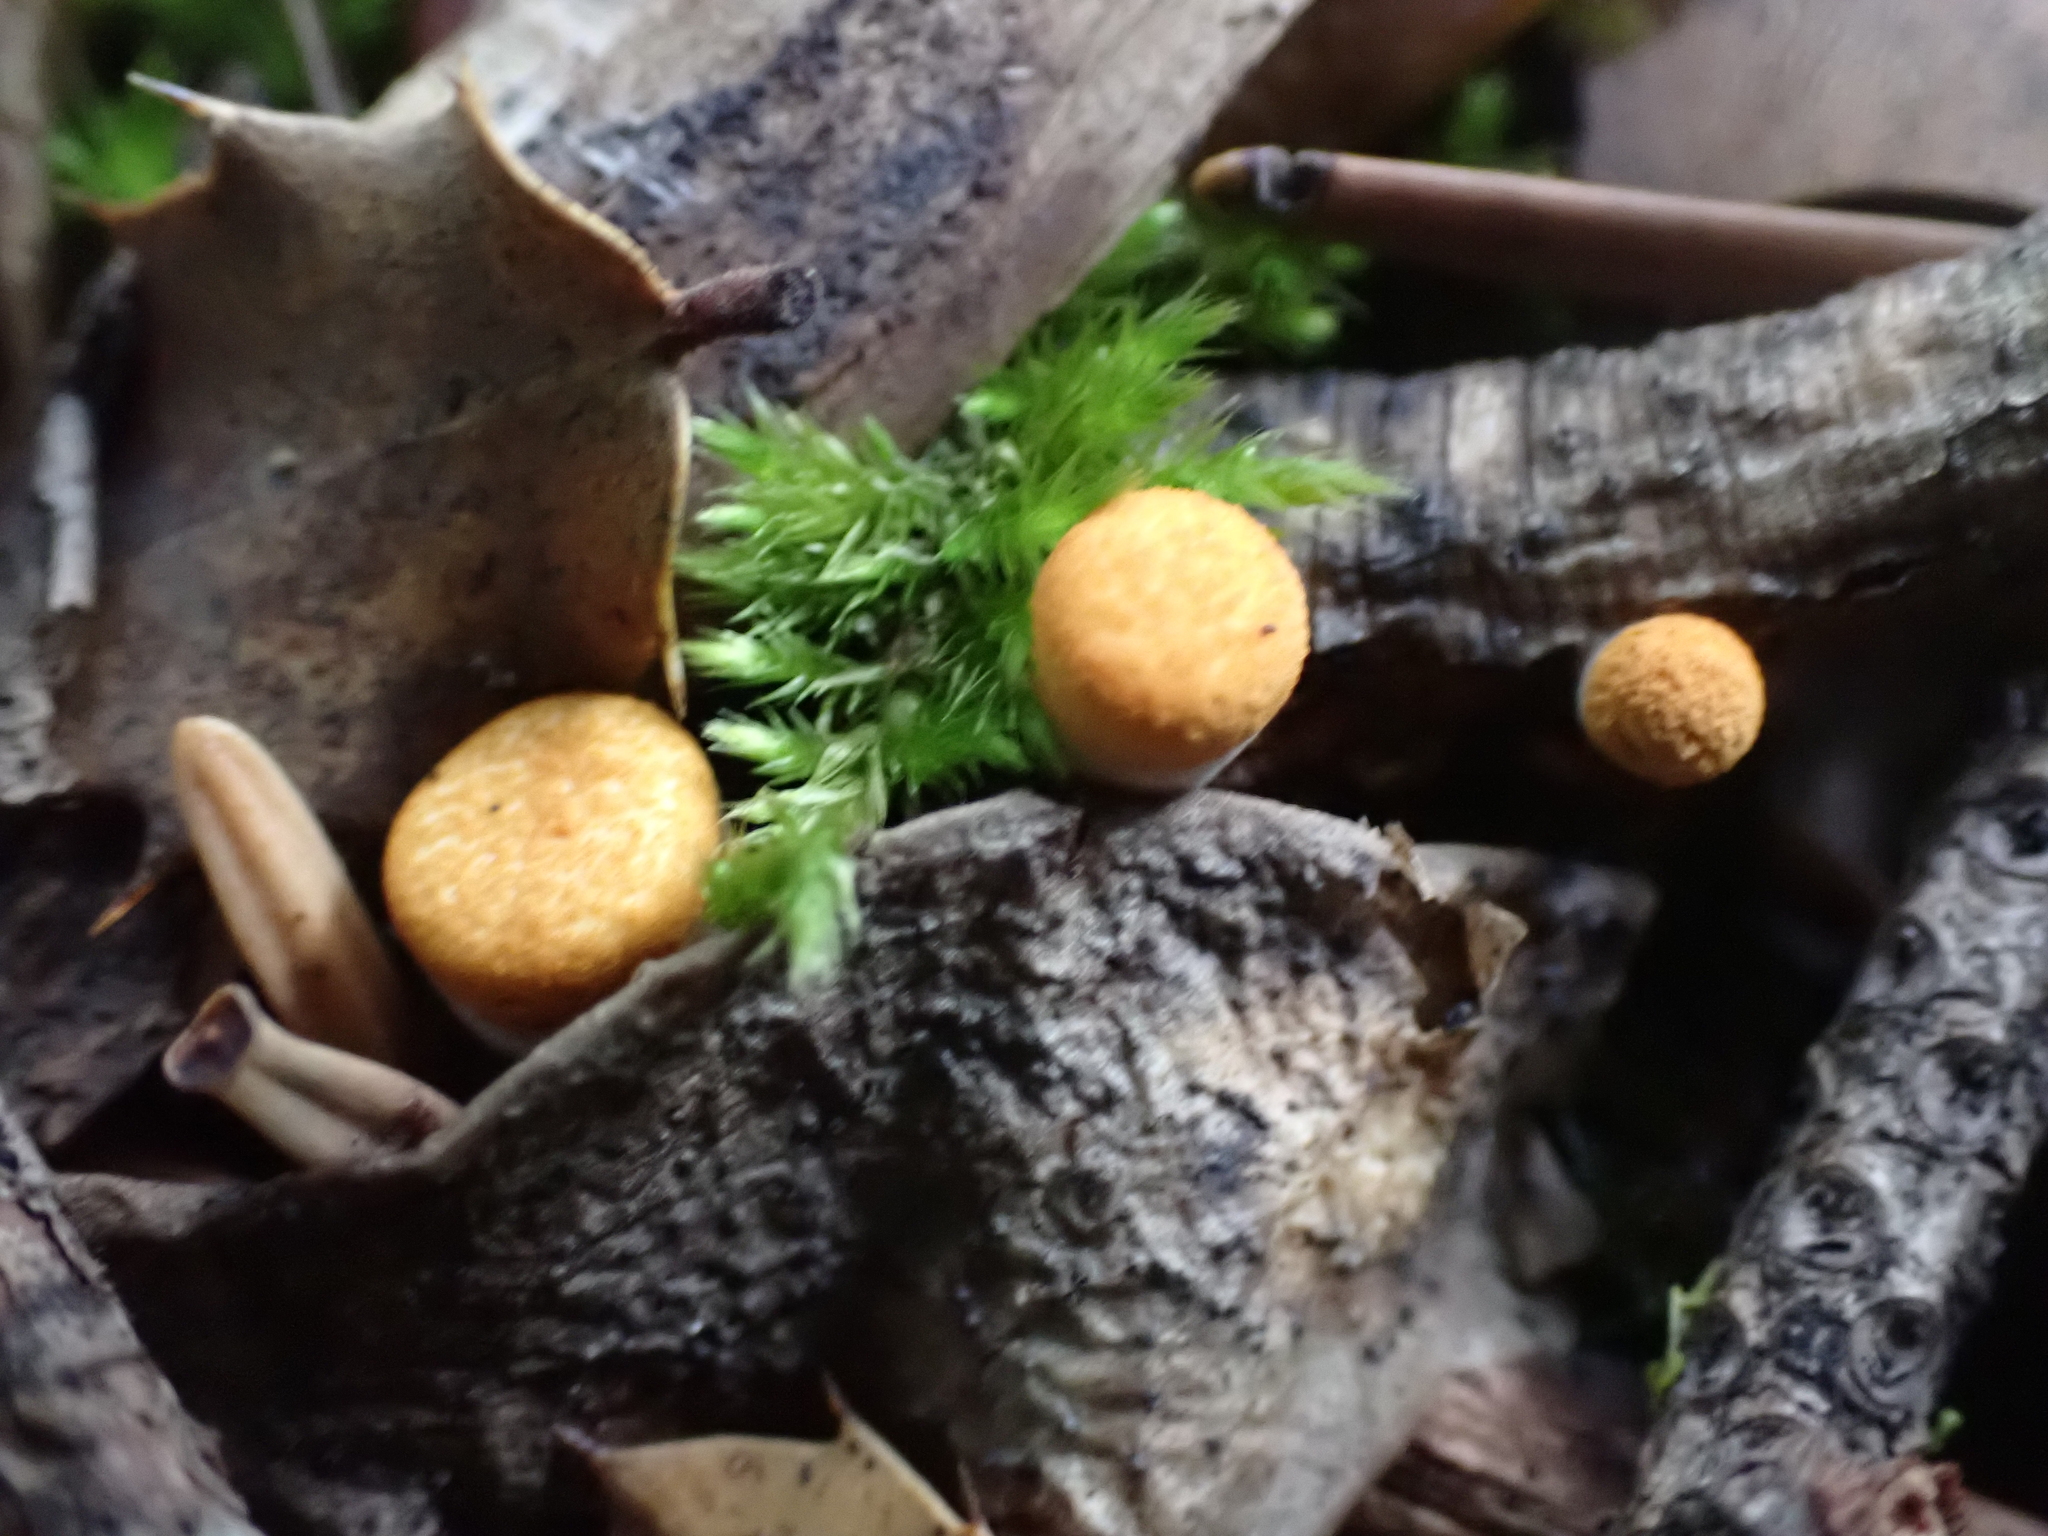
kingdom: Fungi
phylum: Basidiomycota
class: Agaricomycetes
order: Agaricales
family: Nidulariaceae
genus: Crucibulum
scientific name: Crucibulum laeve
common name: Common bird's nest
